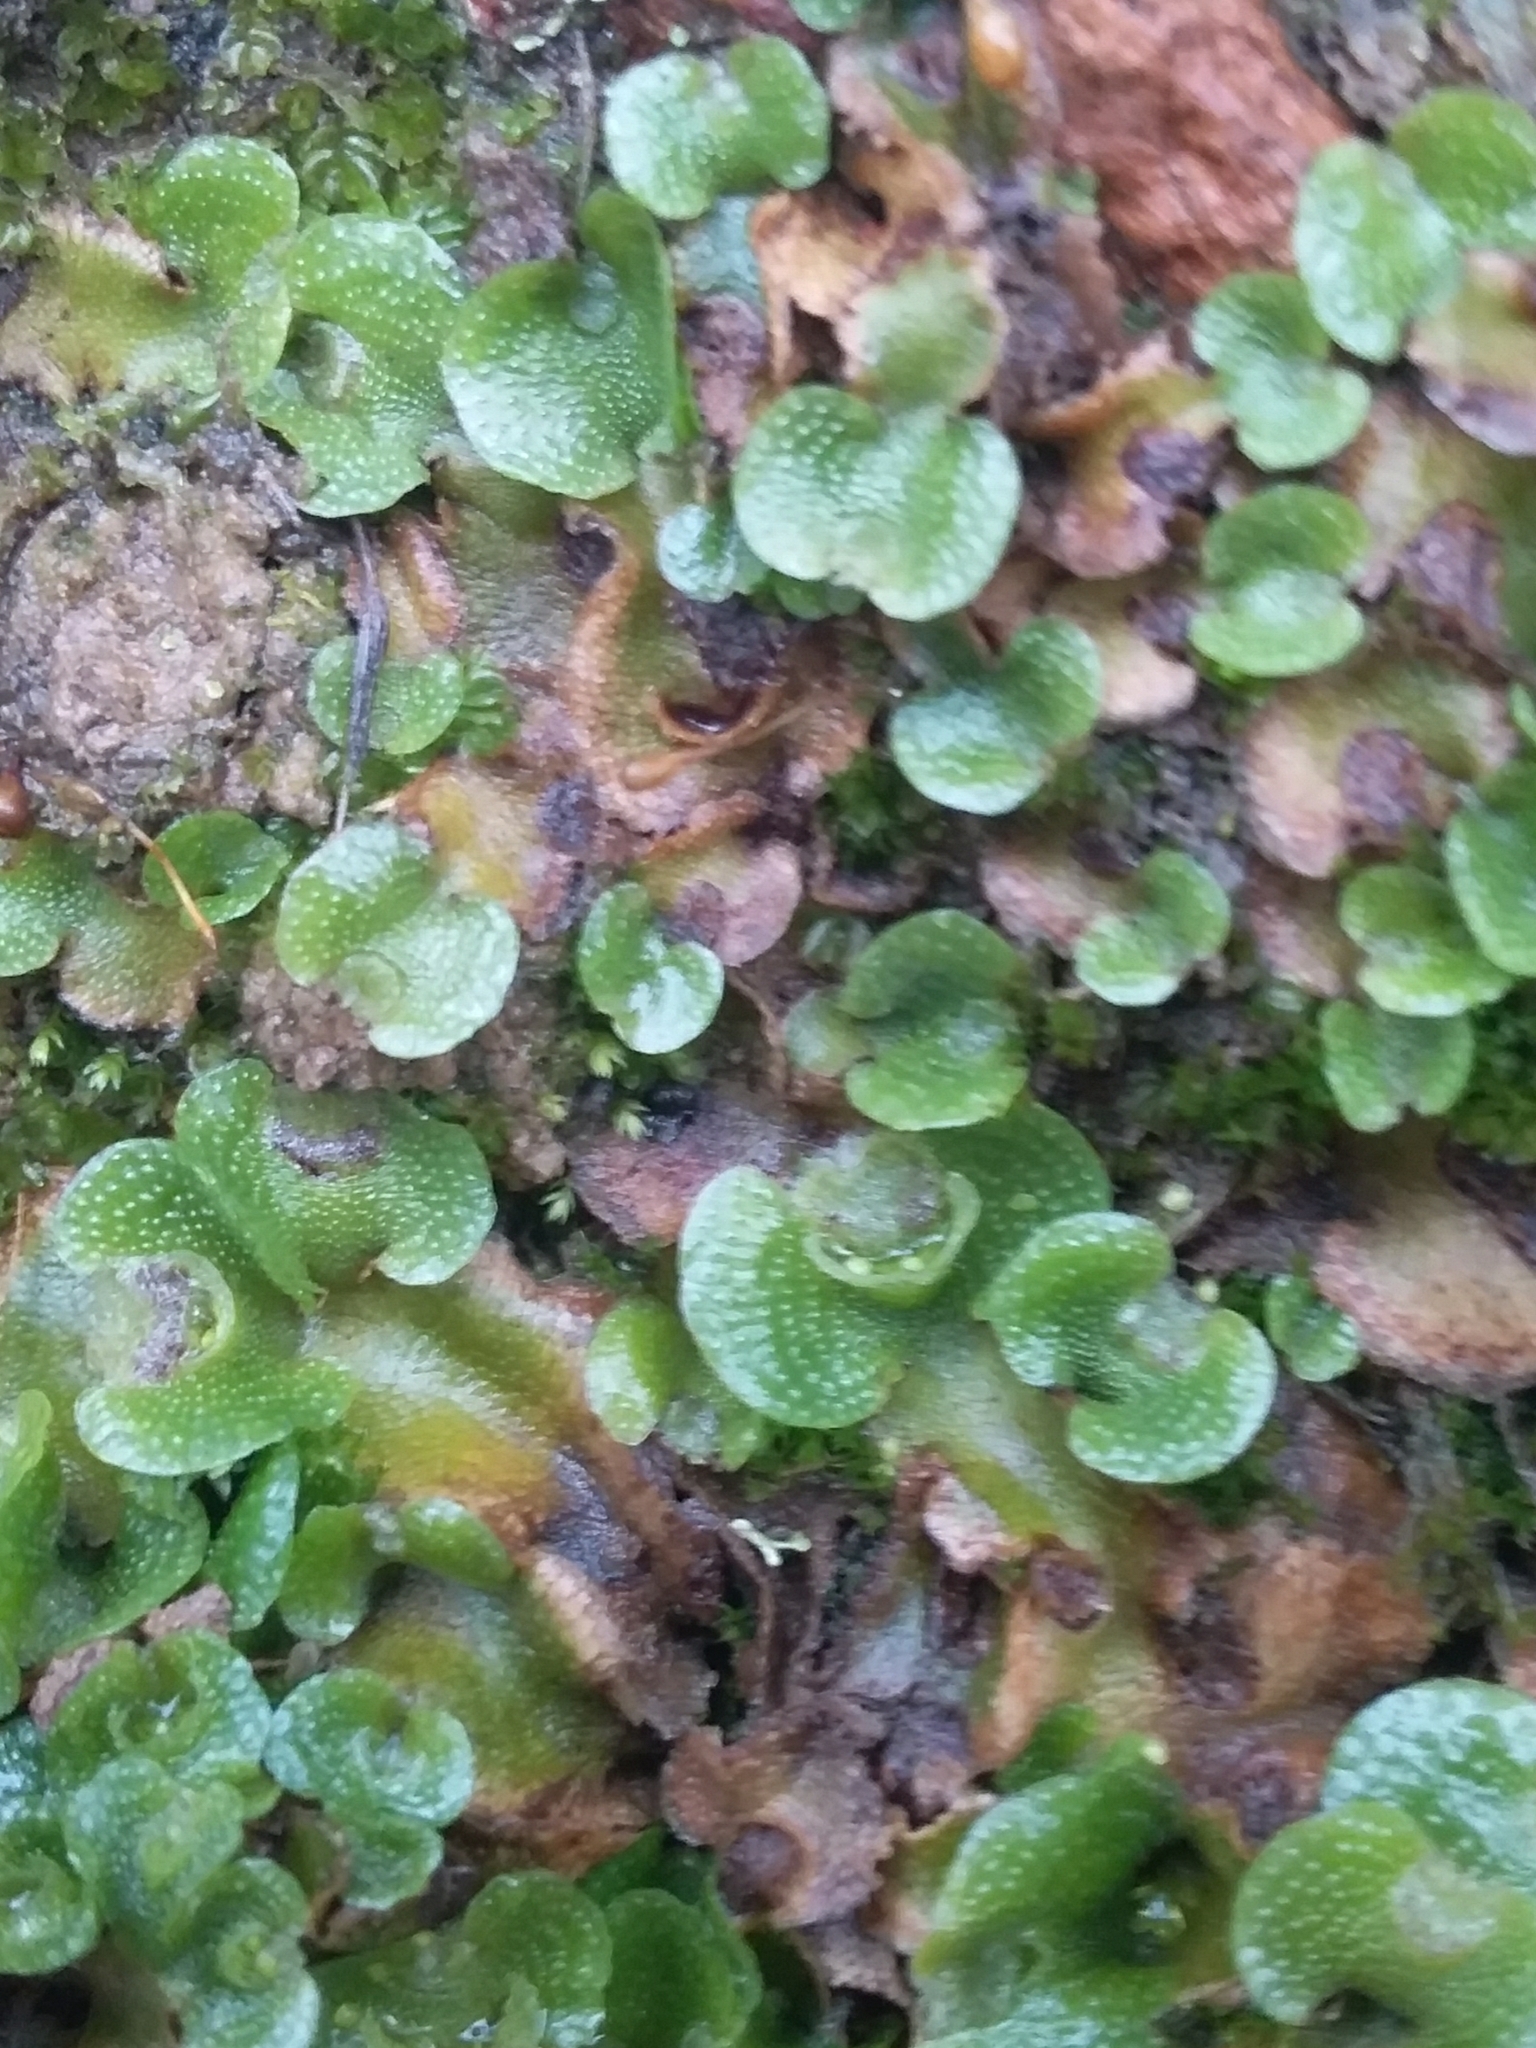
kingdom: Plantae
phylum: Marchantiophyta
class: Marchantiopsida
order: Lunulariales
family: Lunulariaceae
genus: Lunularia
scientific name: Lunularia cruciata
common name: Crescent-cup liverwort
